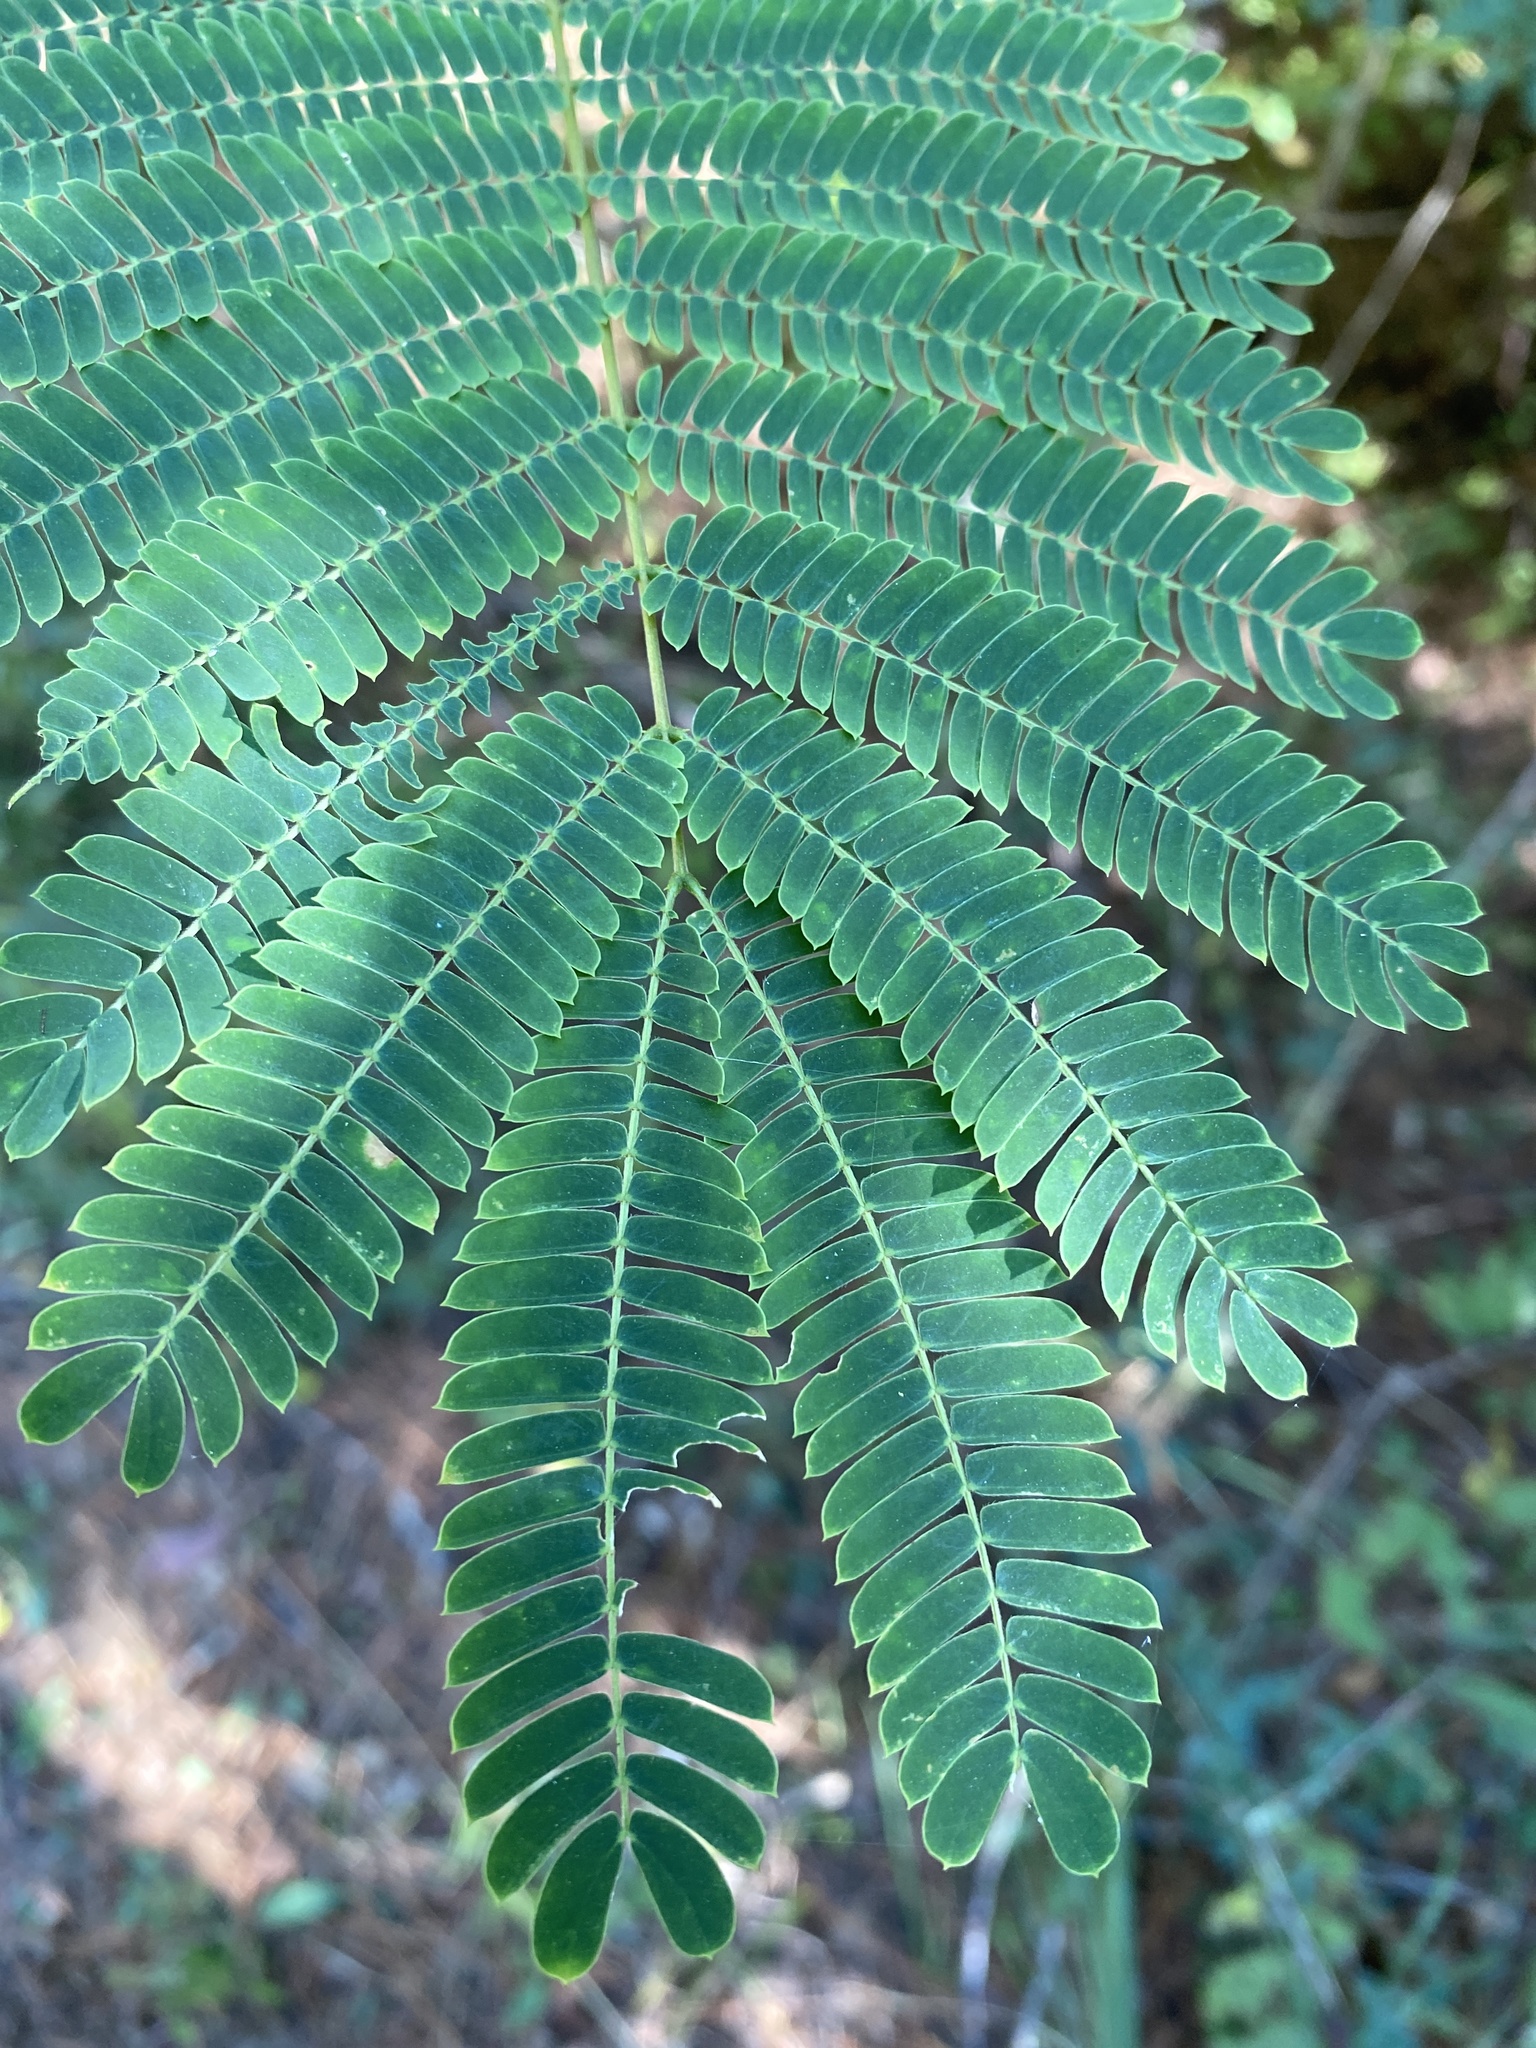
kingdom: Plantae
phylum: Tracheophyta
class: Magnoliopsida
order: Fabales
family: Fabaceae
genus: Albizia
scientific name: Albizia julibrissin
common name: Silktree
